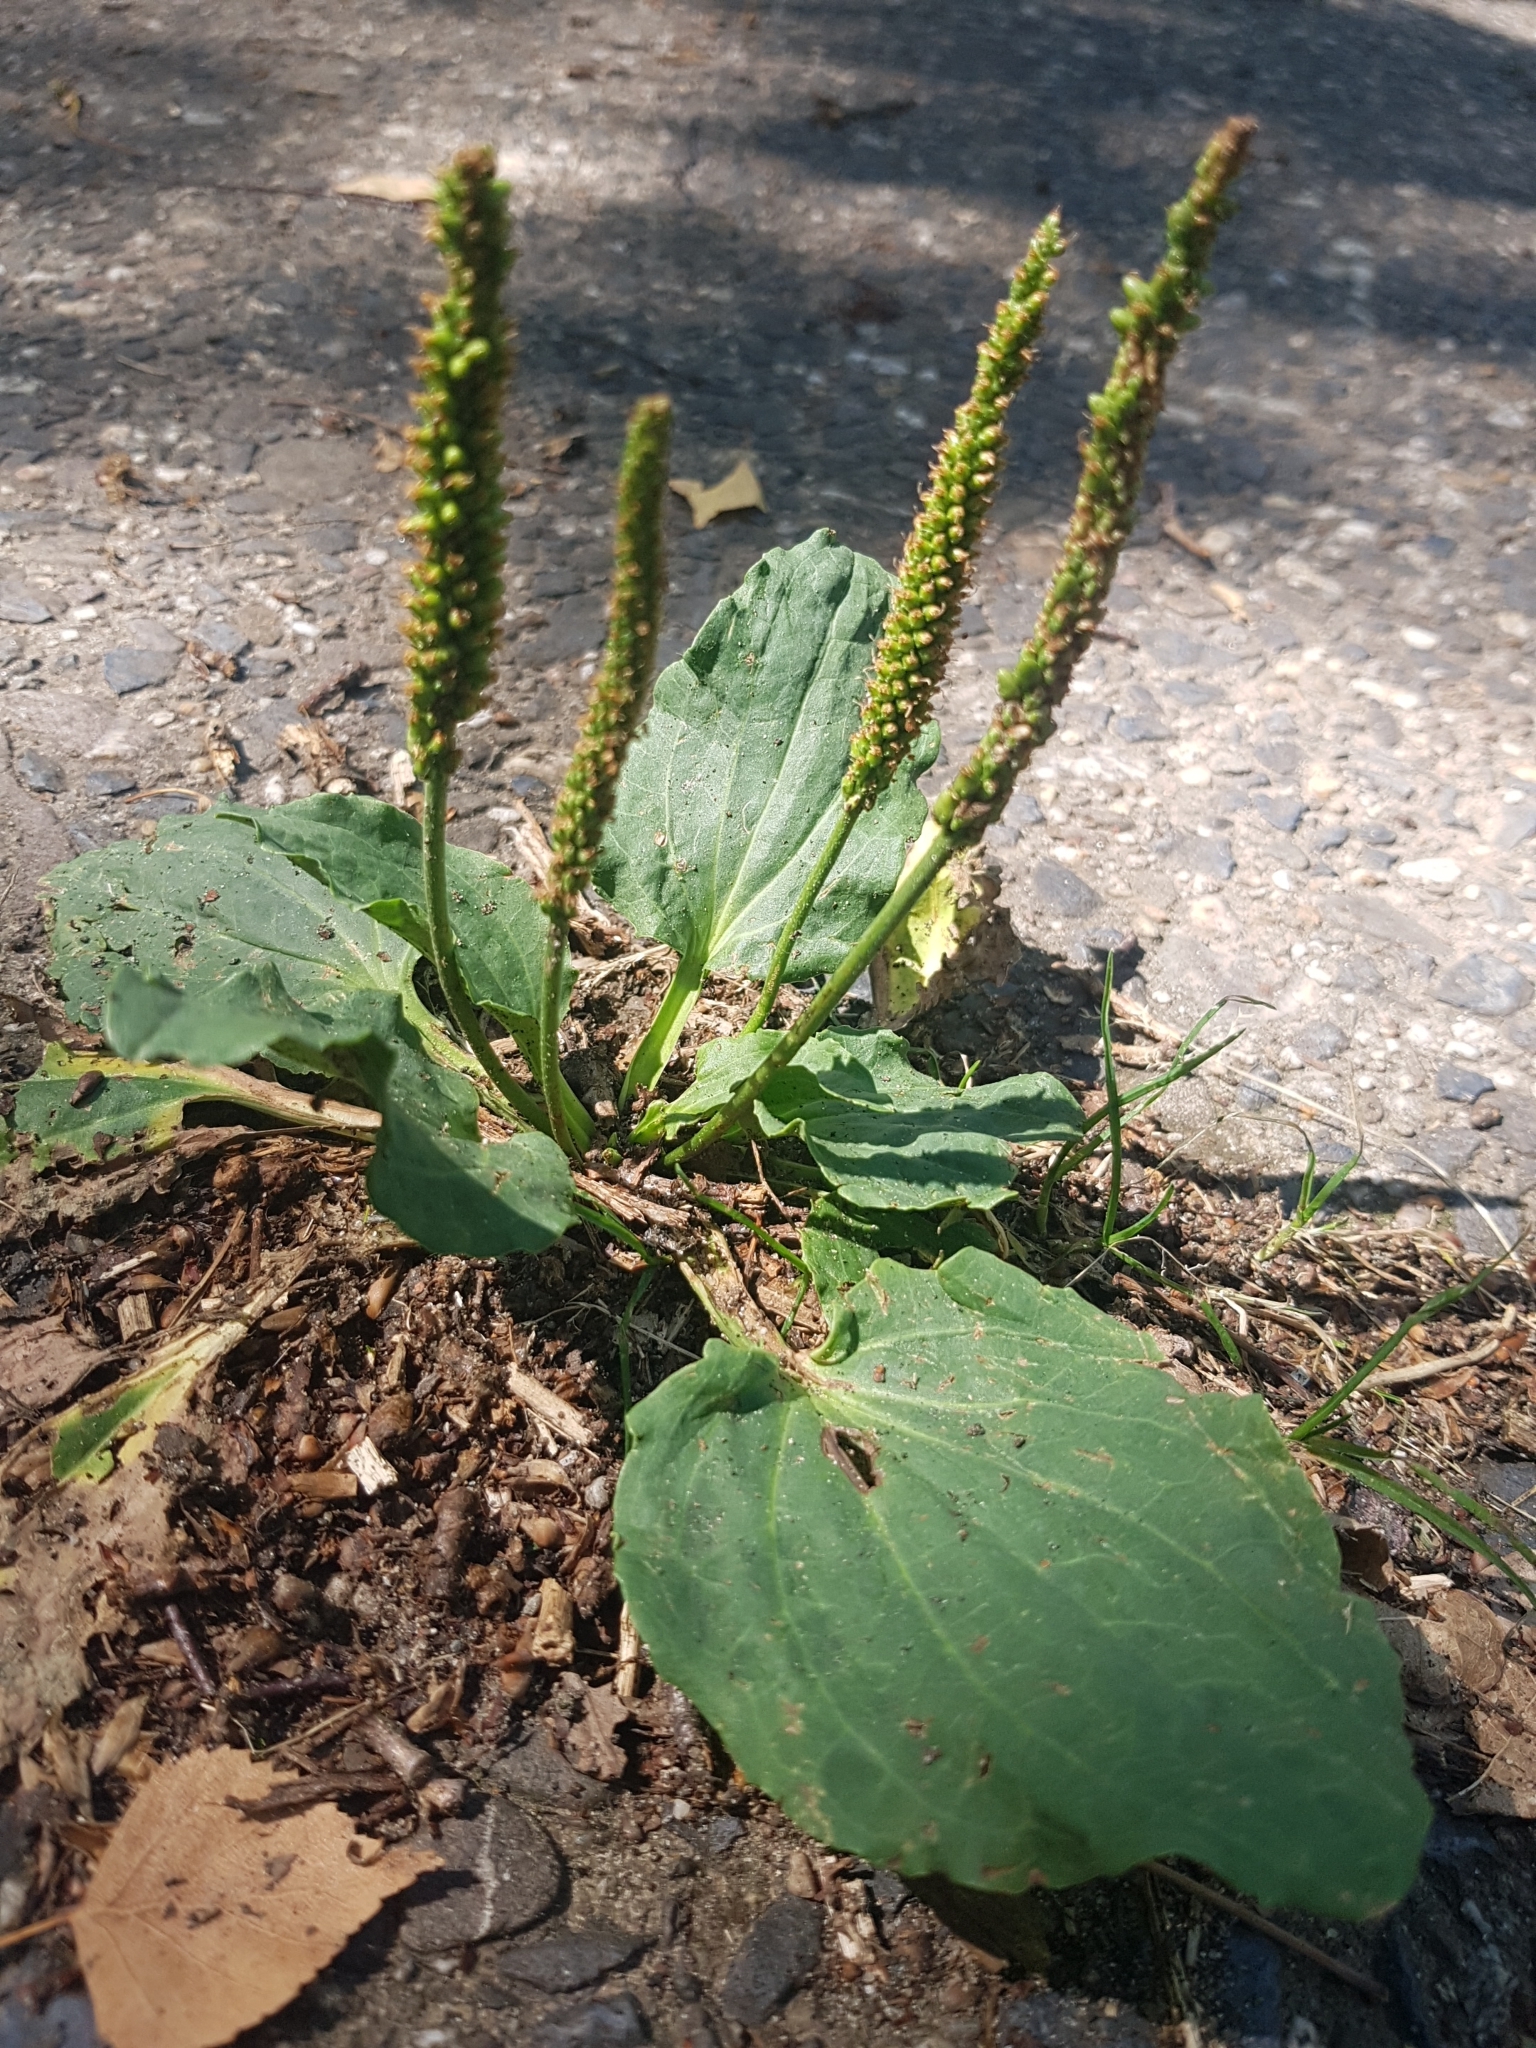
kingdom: Plantae
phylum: Tracheophyta
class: Magnoliopsida
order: Lamiales
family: Plantaginaceae
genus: Plantago
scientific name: Plantago major
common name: Common plantain
